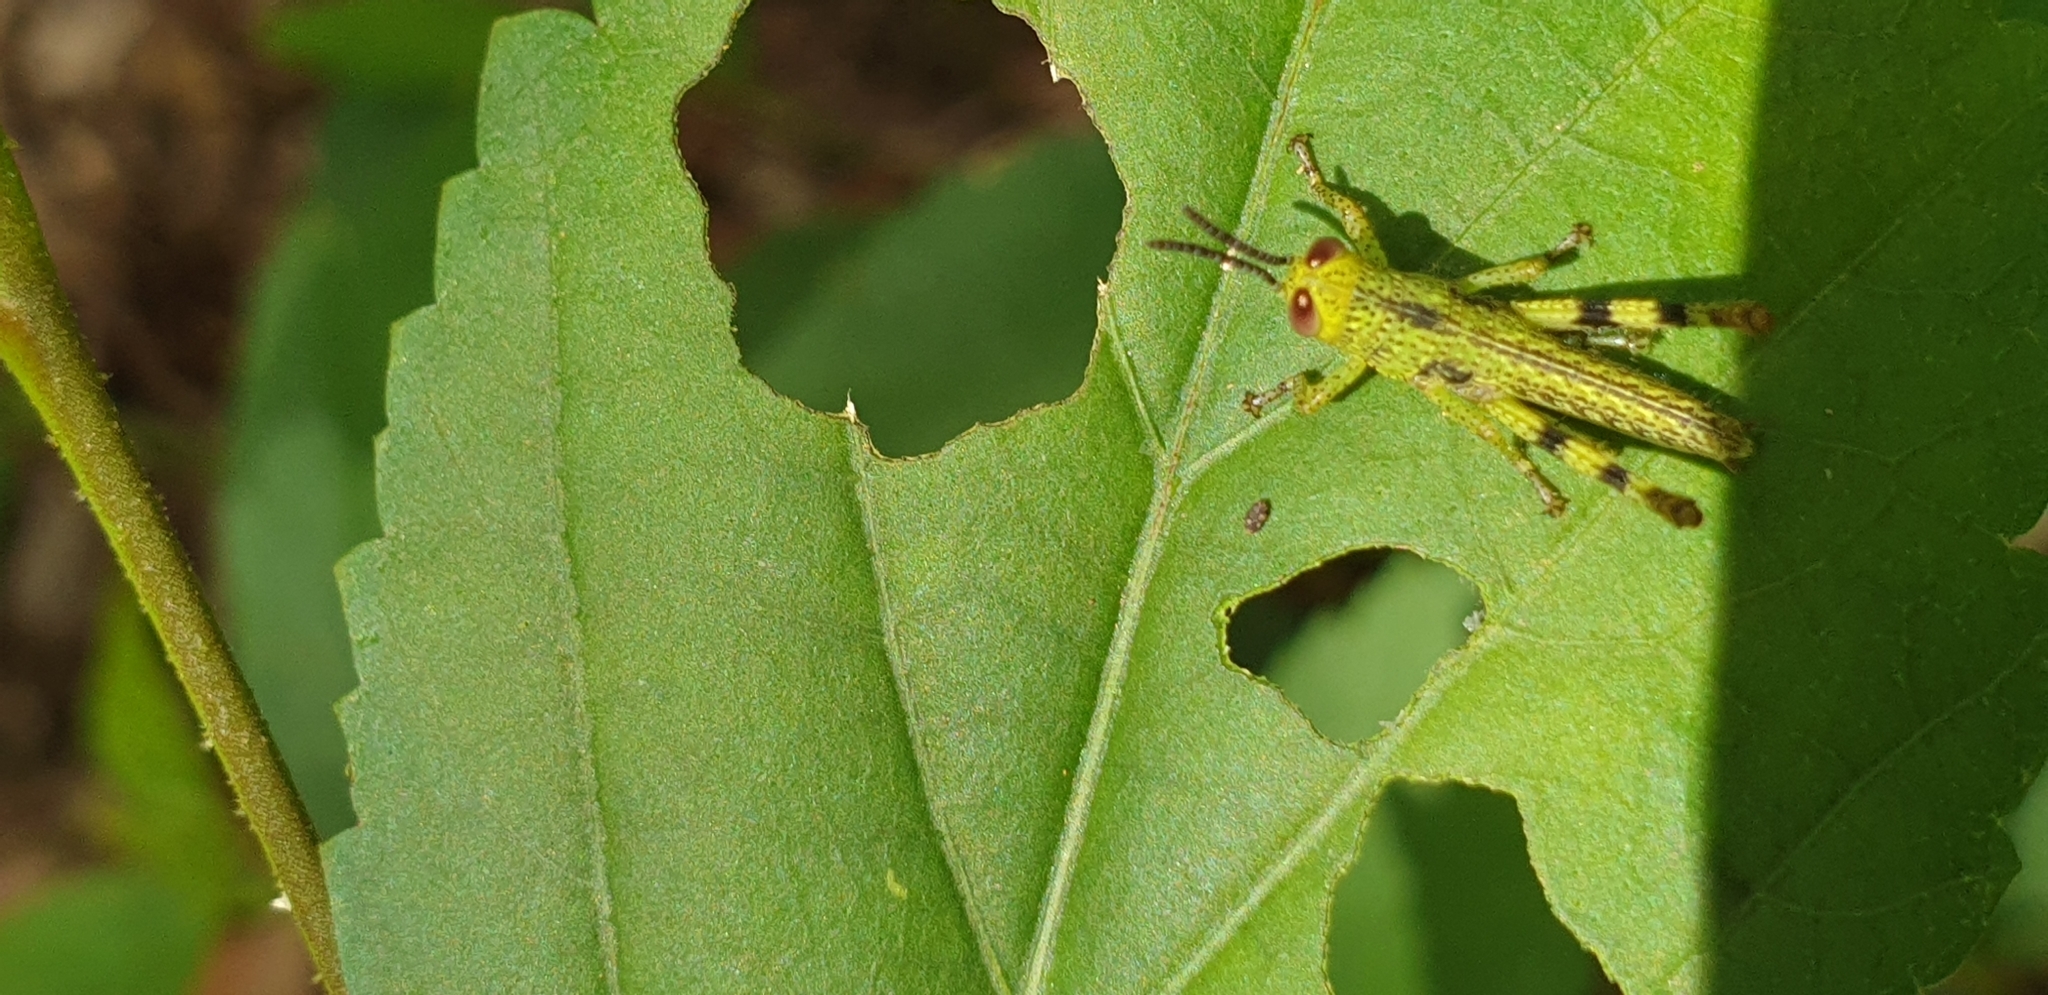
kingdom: Animalia
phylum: Arthropoda
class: Insecta
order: Orthoptera
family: Acrididae
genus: Valanga
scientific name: Valanga irregularis
